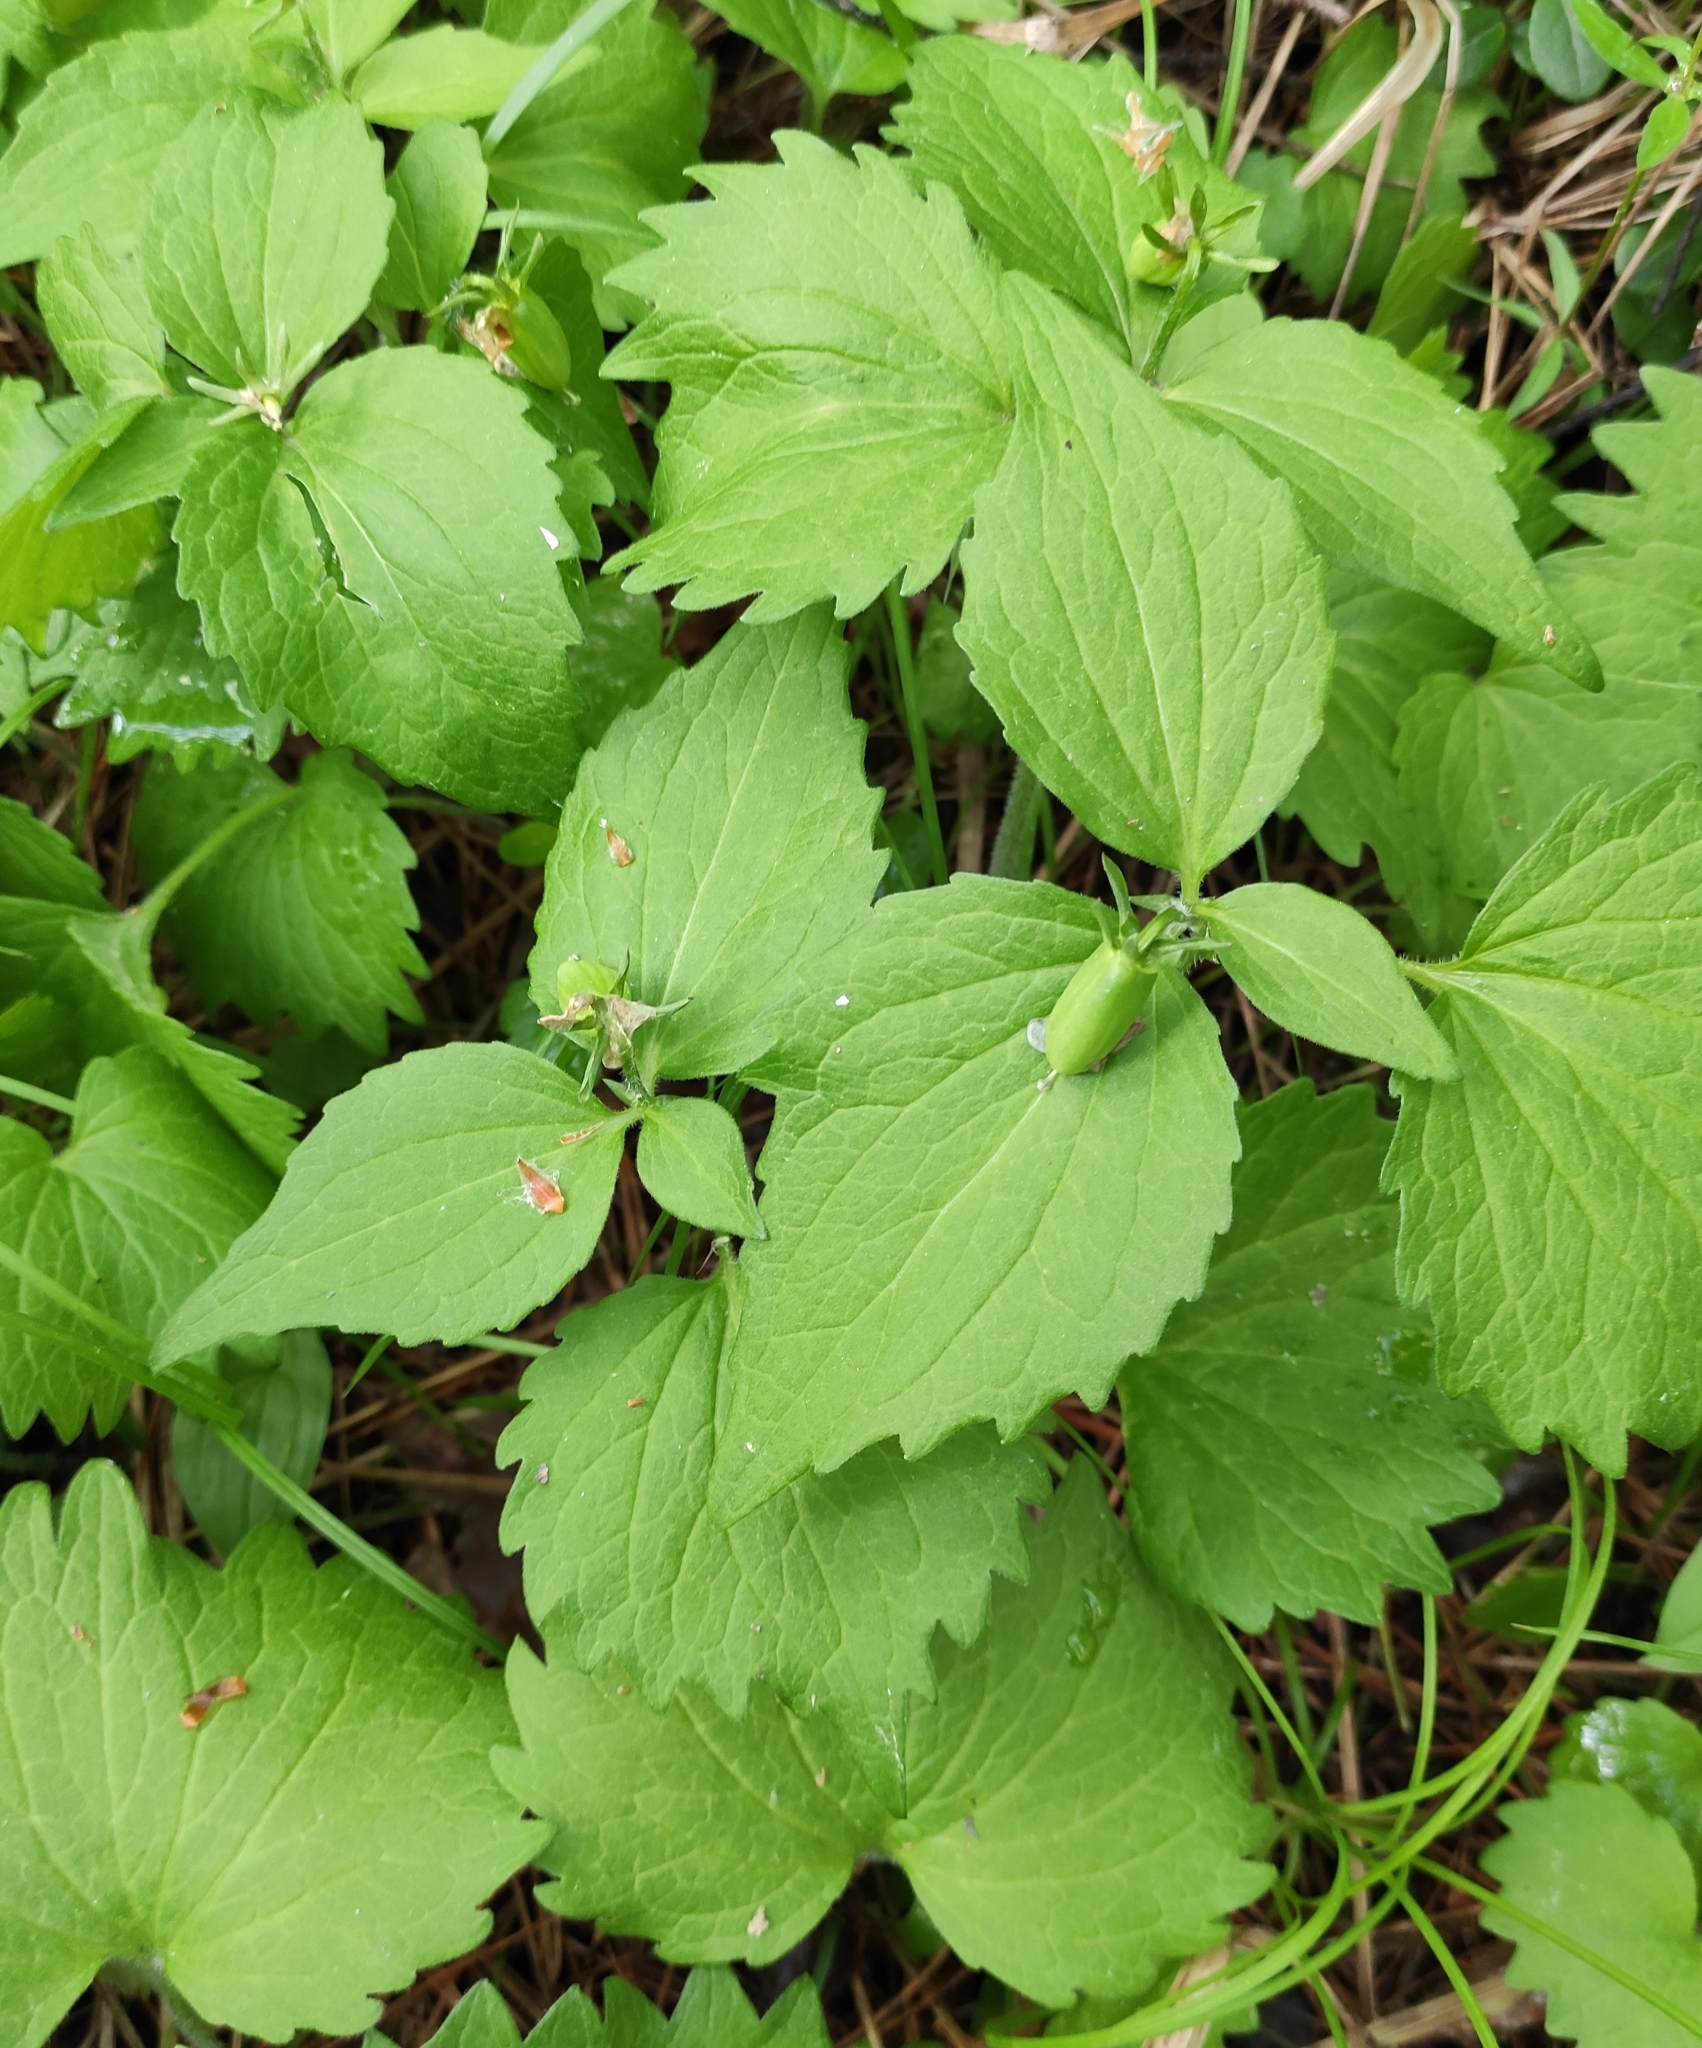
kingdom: Plantae
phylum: Tracheophyta
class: Magnoliopsida
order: Malpighiales
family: Violaceae
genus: Viola
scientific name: Viola uniflora
